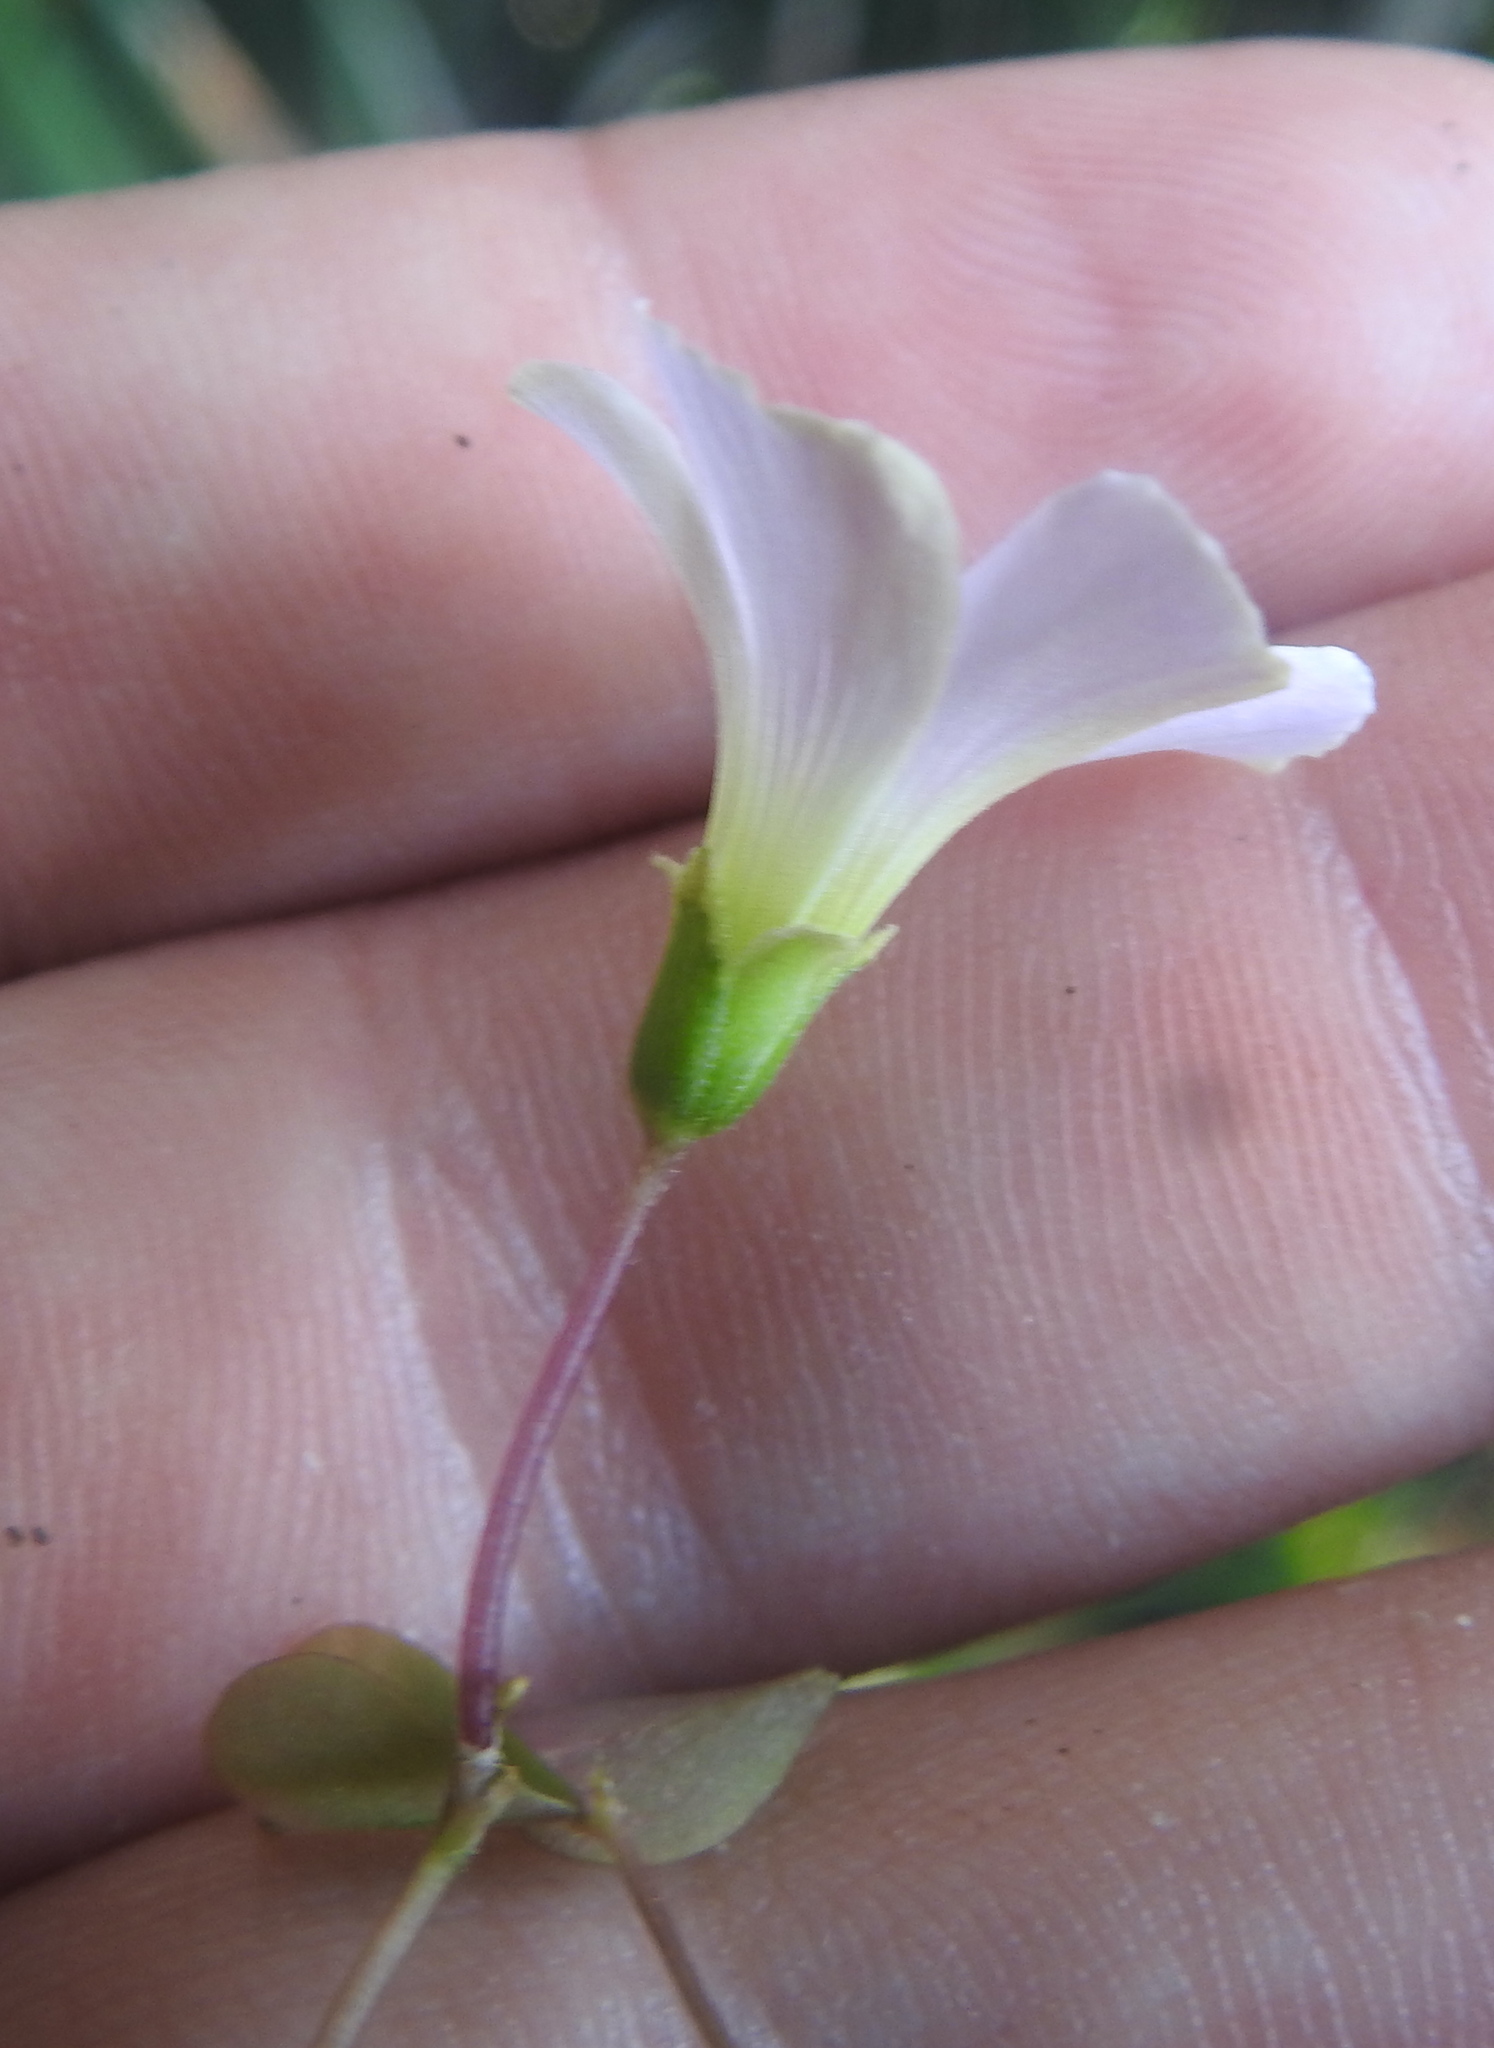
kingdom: Plantae
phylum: Tracheophyta
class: Magnoliopsida
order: Oxalidales
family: Oxalidaceae
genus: Oxalis
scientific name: Oxalis incarnata
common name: Pale pink-sorrel
